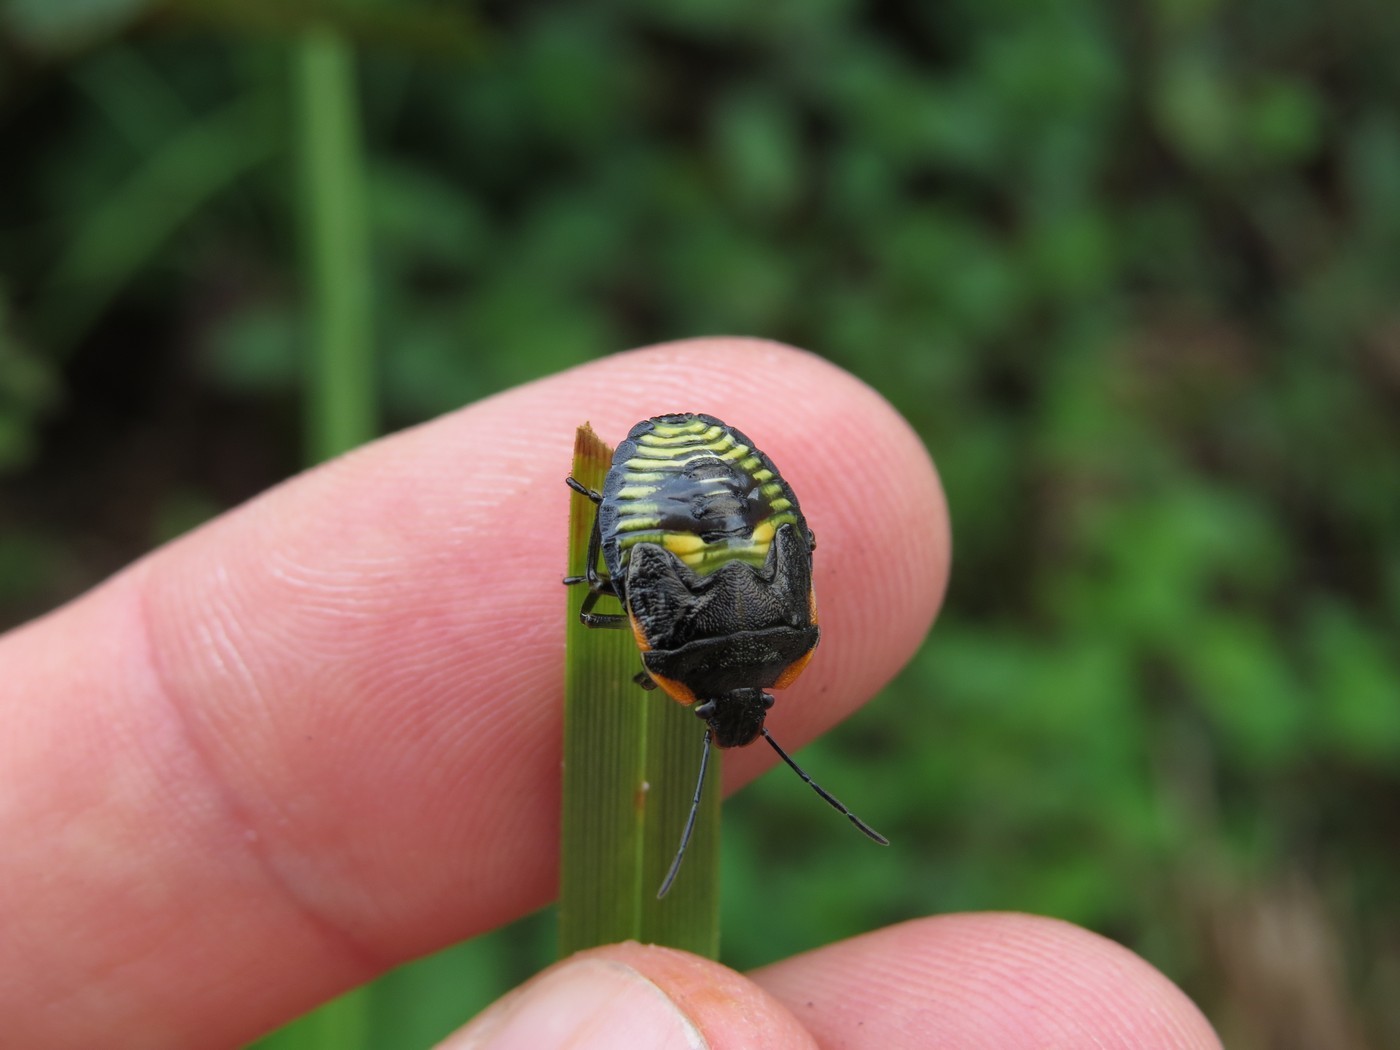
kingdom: Animalia
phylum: Arthropoda
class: Insecta
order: Hemiptera
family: Pentatomidae
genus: Chinavia
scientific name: Chinavia hilaris
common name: Green stink bug
